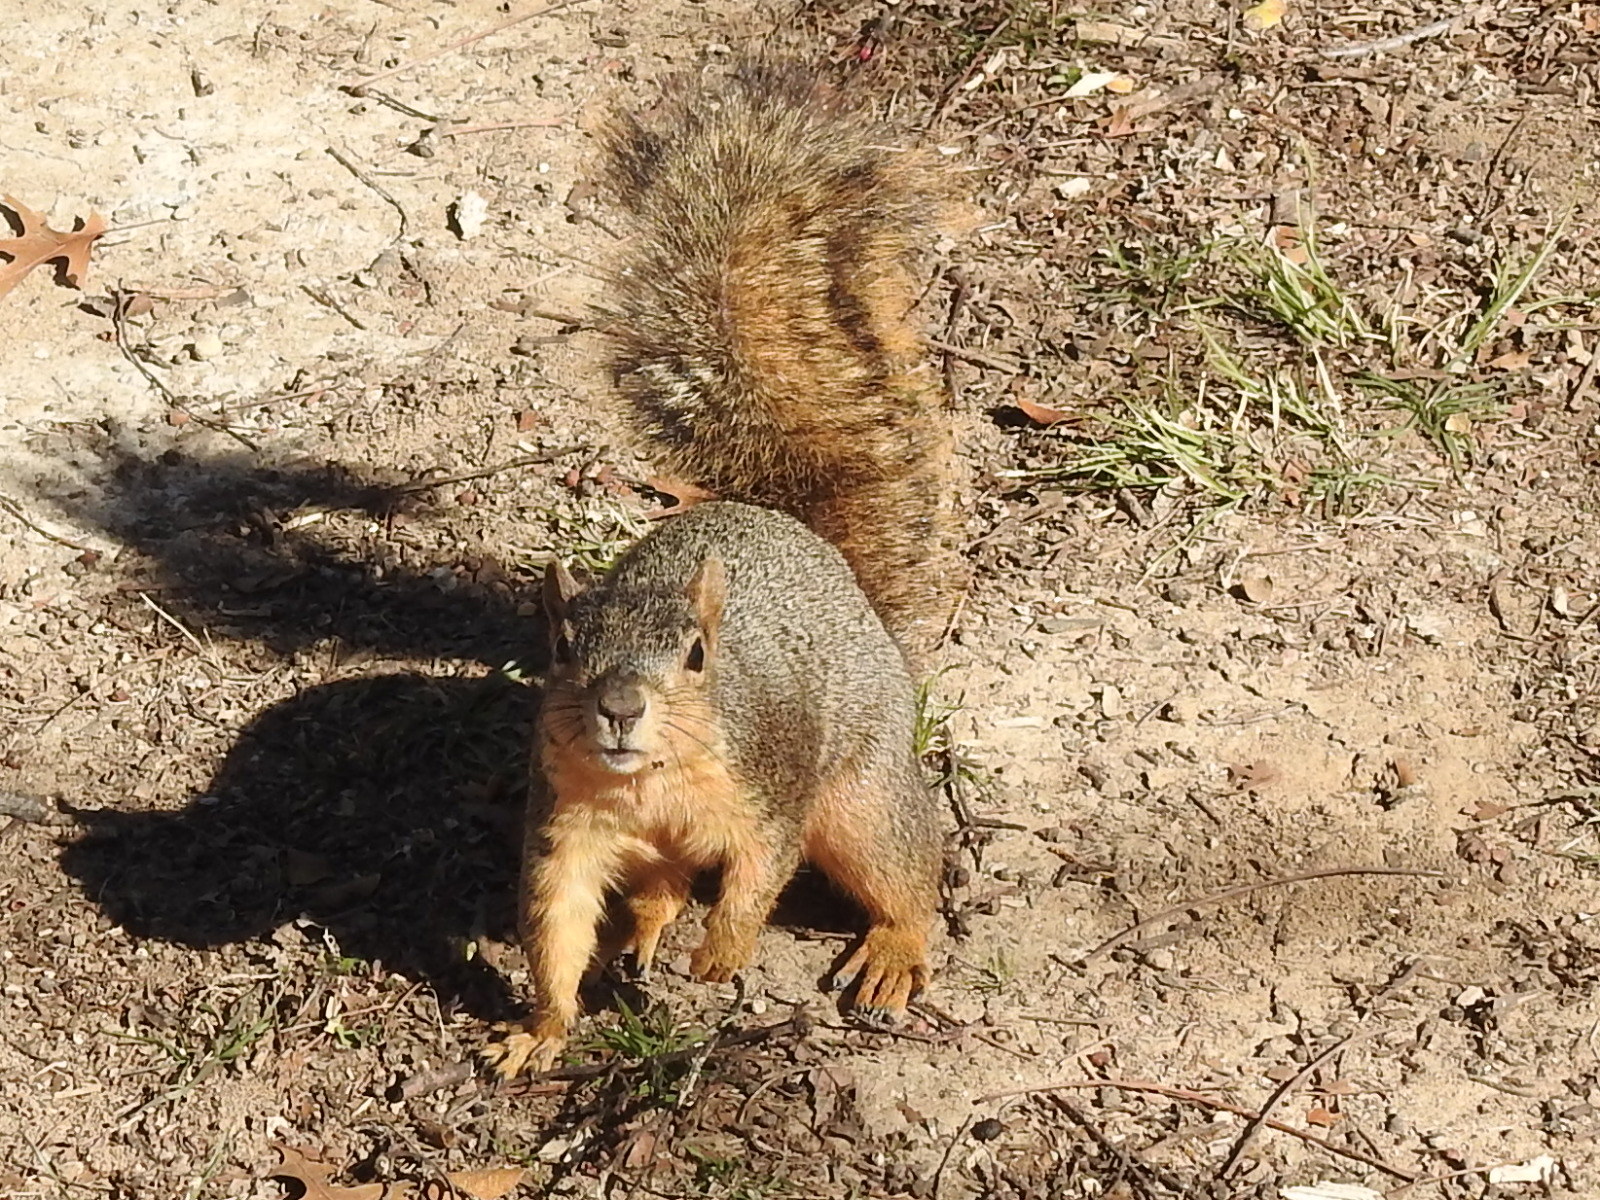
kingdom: Animalia
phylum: Chordata
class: Mammalia
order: Rodentia
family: Sciuridae
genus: Sciurus
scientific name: Sciurus niger
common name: Fox squirrel
